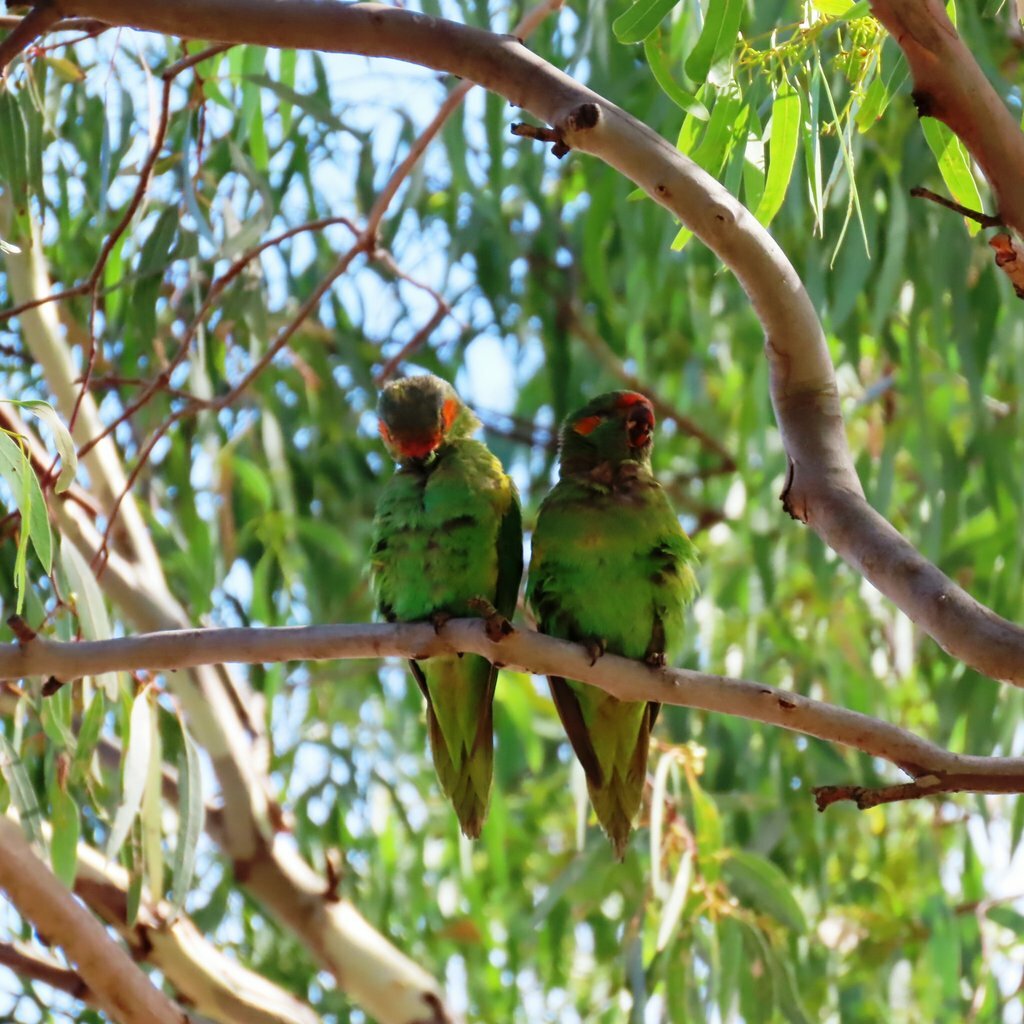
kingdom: Animalia
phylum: Chordata
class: Aves
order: Psittaciformes
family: Psittacidae
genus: Glossopsitta
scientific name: Glossopsitta concinna
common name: Musk lorikeet
